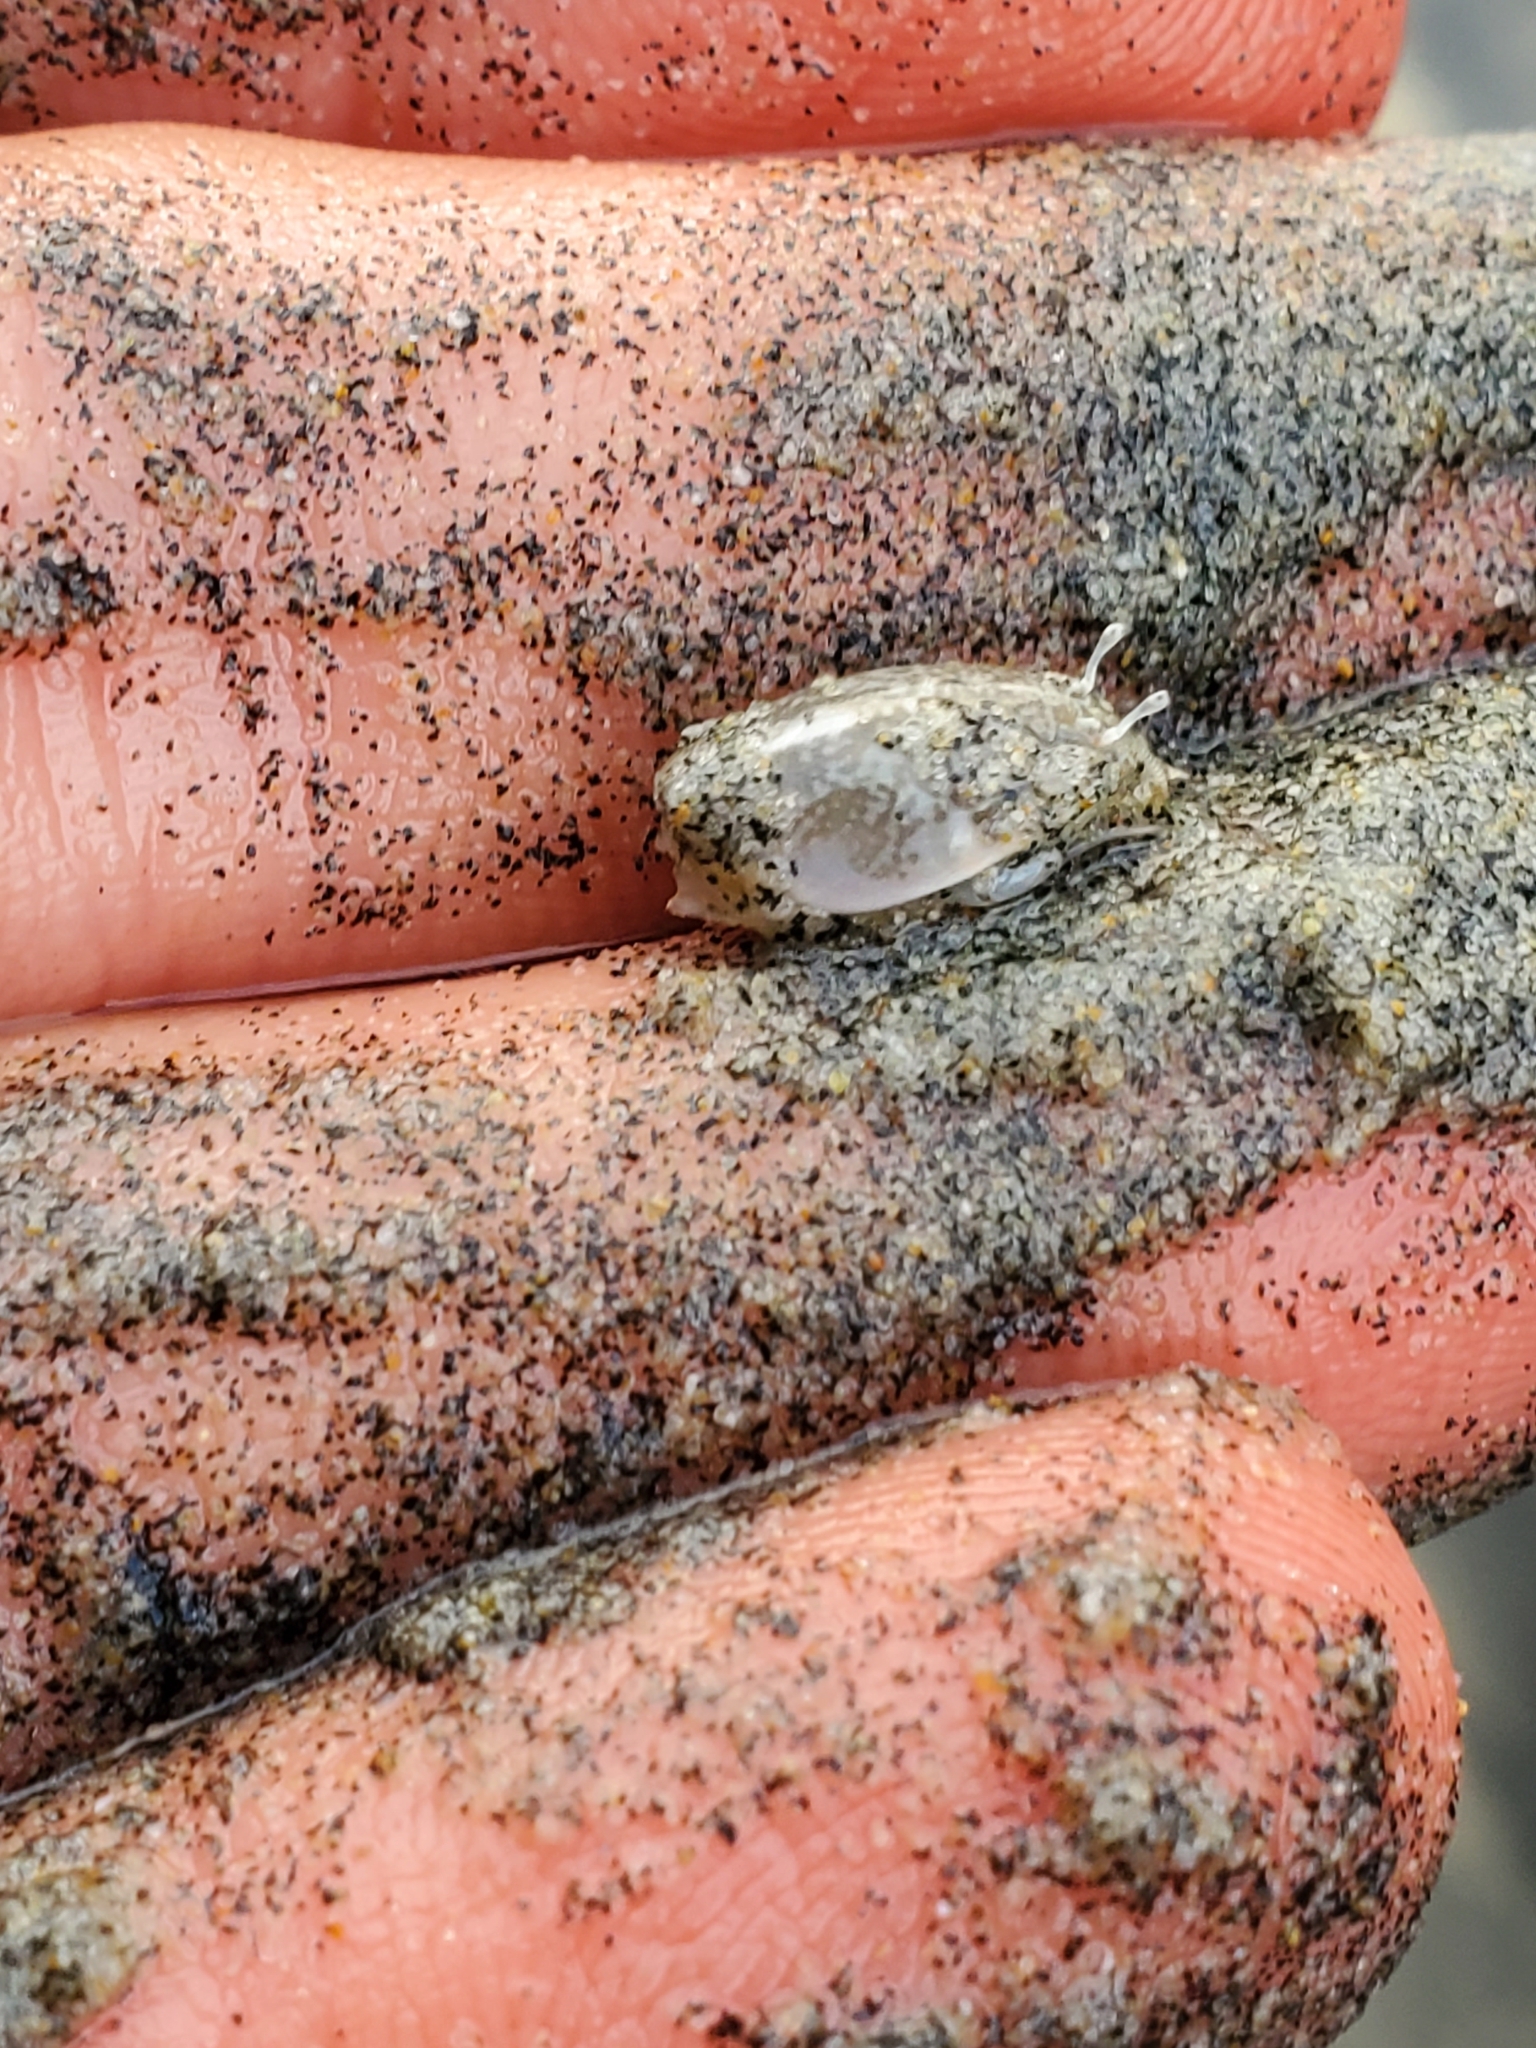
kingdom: Animalia
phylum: Arthropoda
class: Malacostraca
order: Decapoda
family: Hippidae
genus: Emerita
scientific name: Emerita analoga
